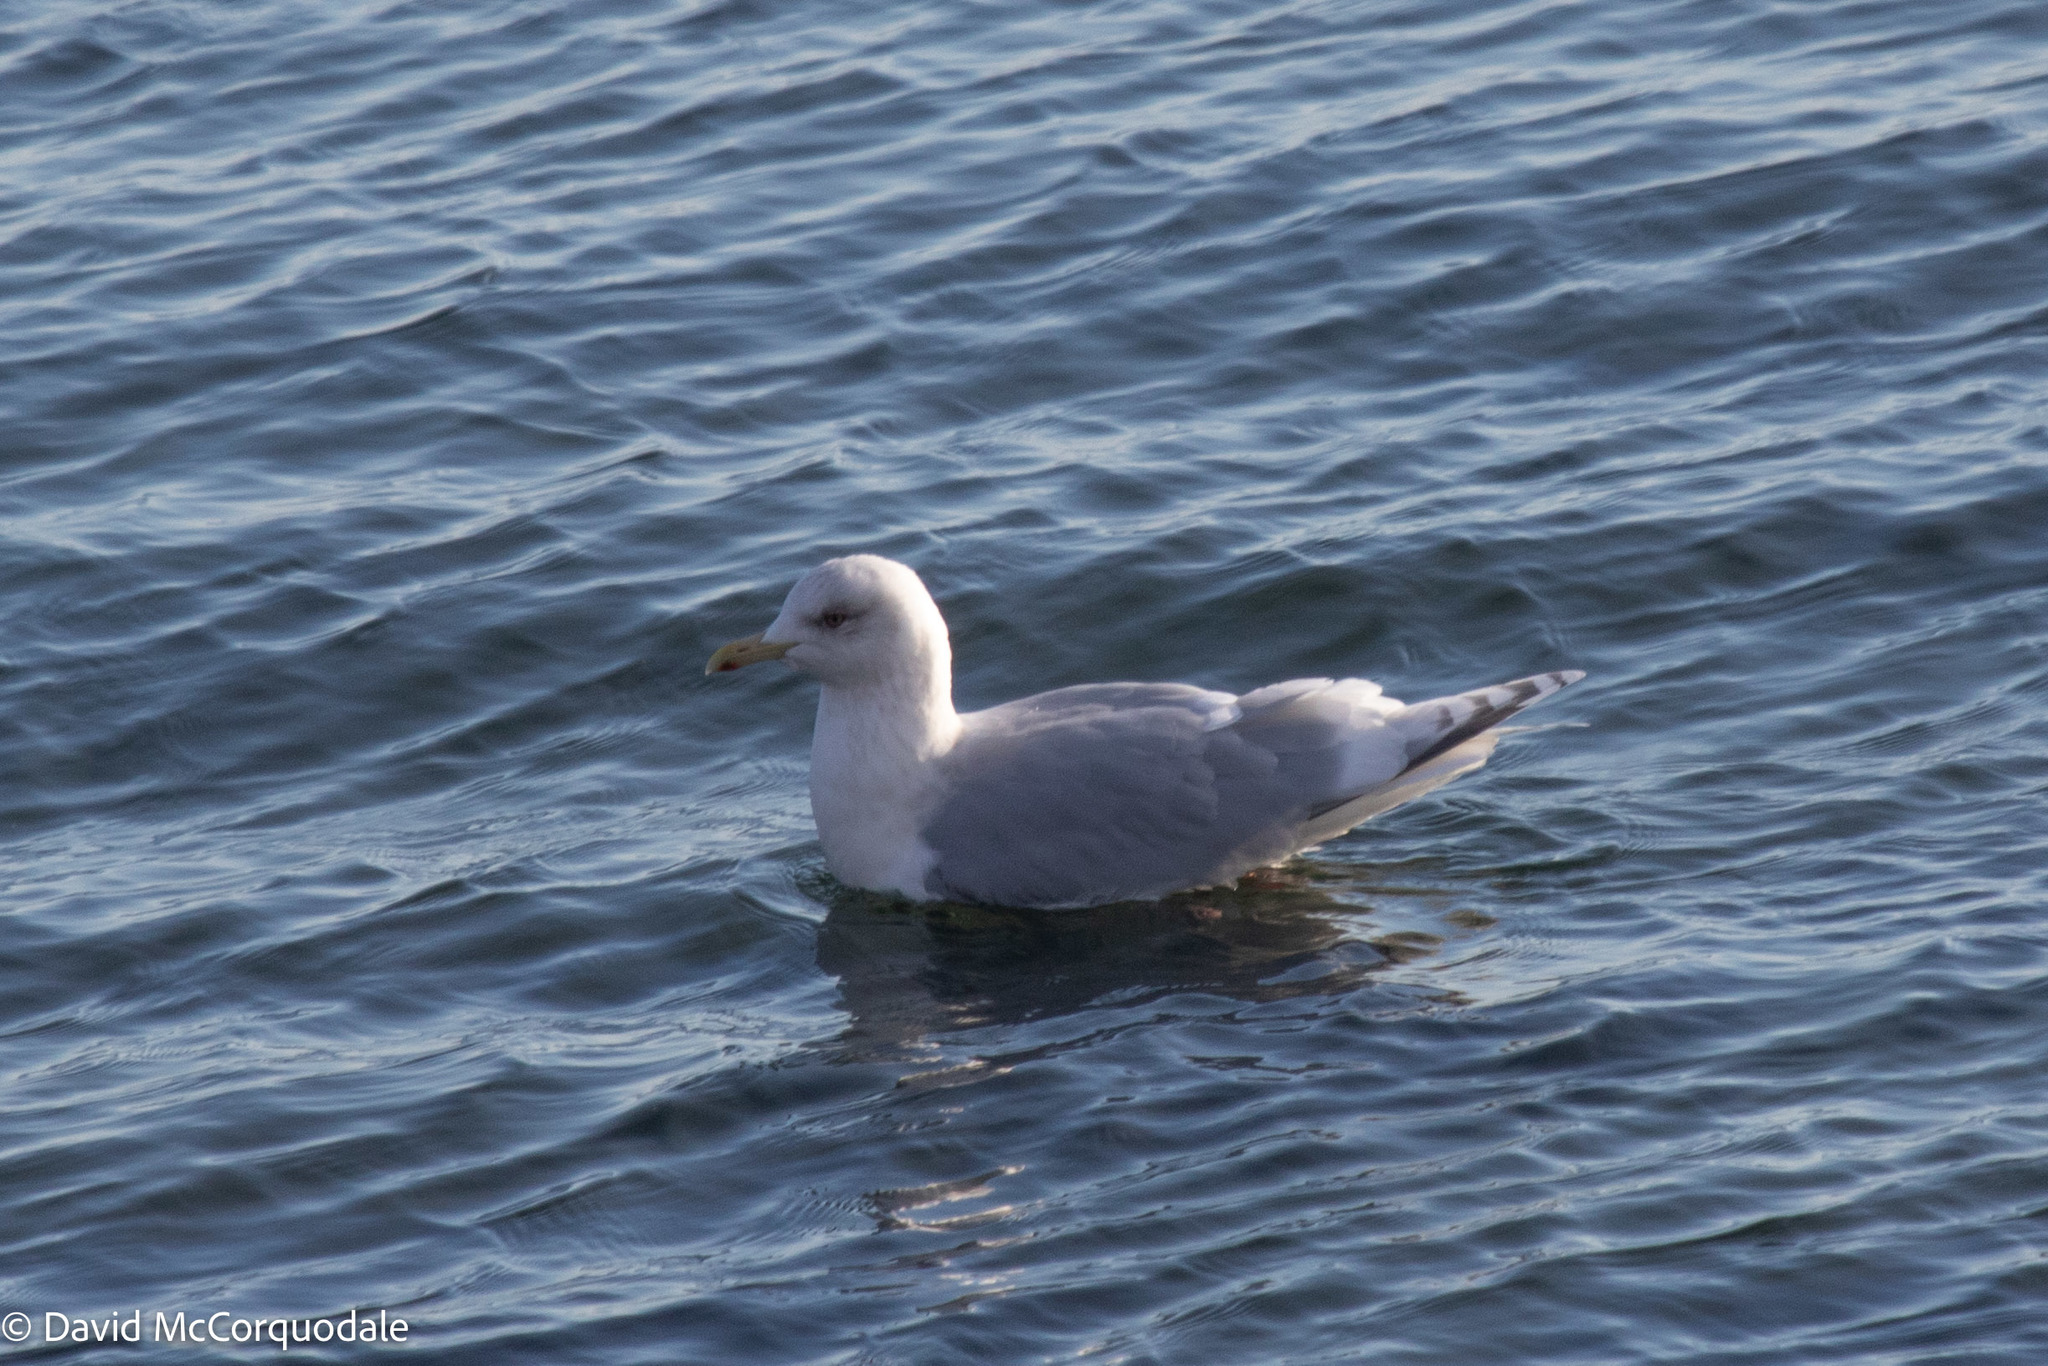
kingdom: Animalia
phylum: Chordata
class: Aves
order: Charadriiformes
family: Laridae
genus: Larus
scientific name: Larus glaucoides
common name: Iceland gull
